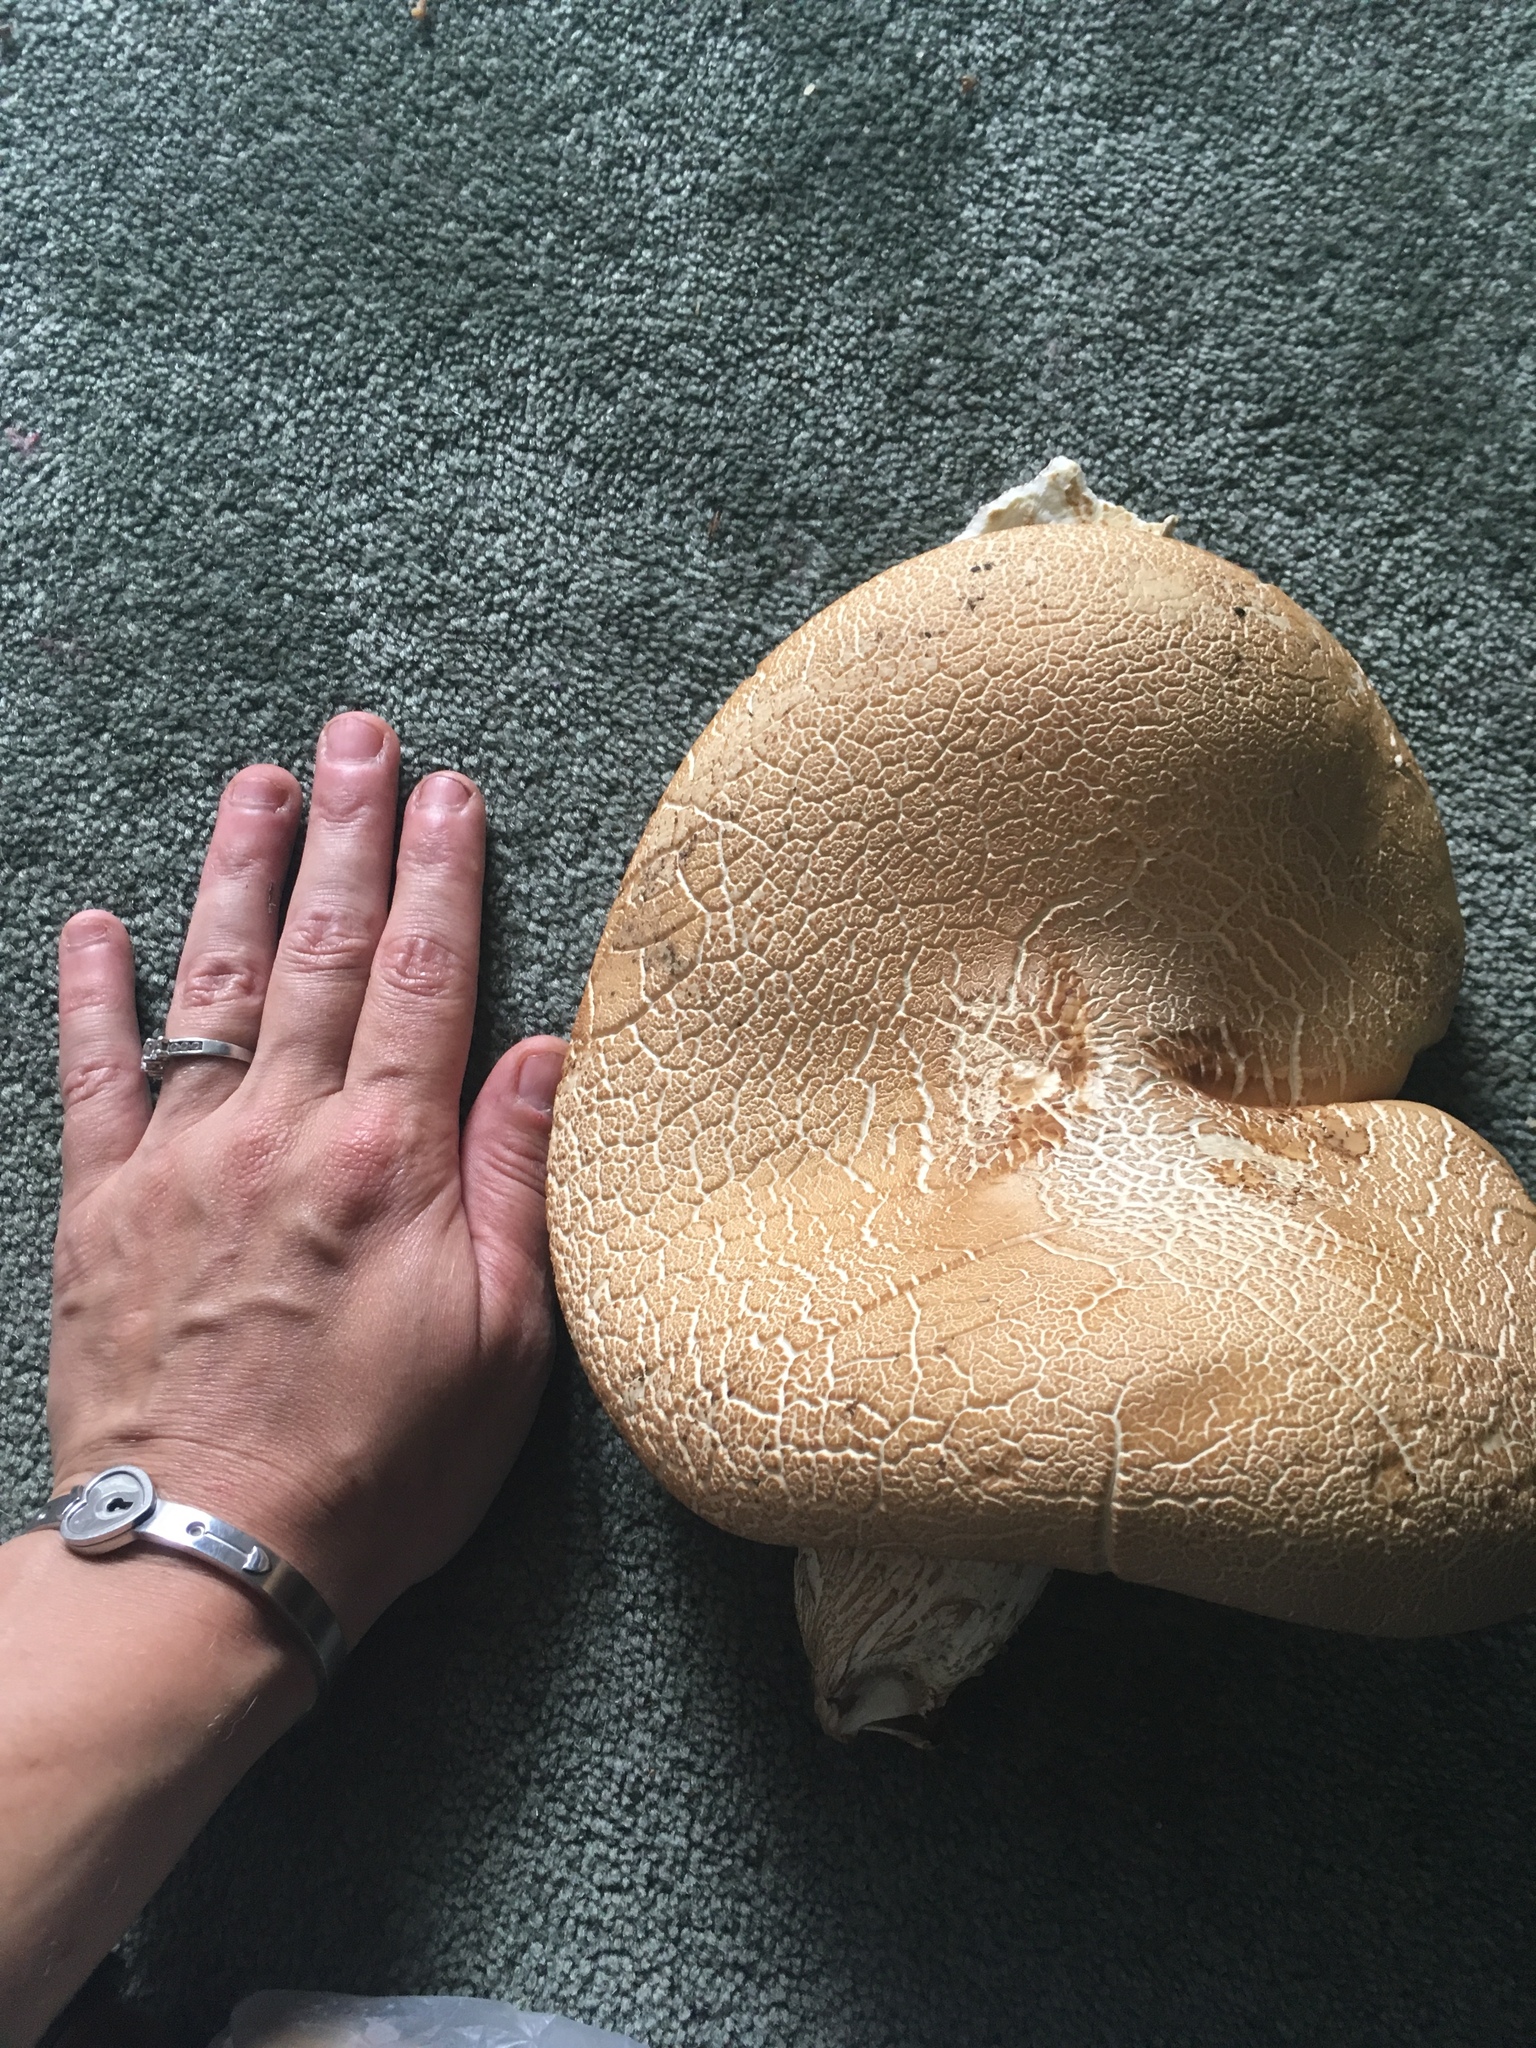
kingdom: Fungi
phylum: Basidiomycota
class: Agaricomycetes
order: Agaricales
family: Tubariaceae
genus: Cyclocybe
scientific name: Cyclocybe parasitica
